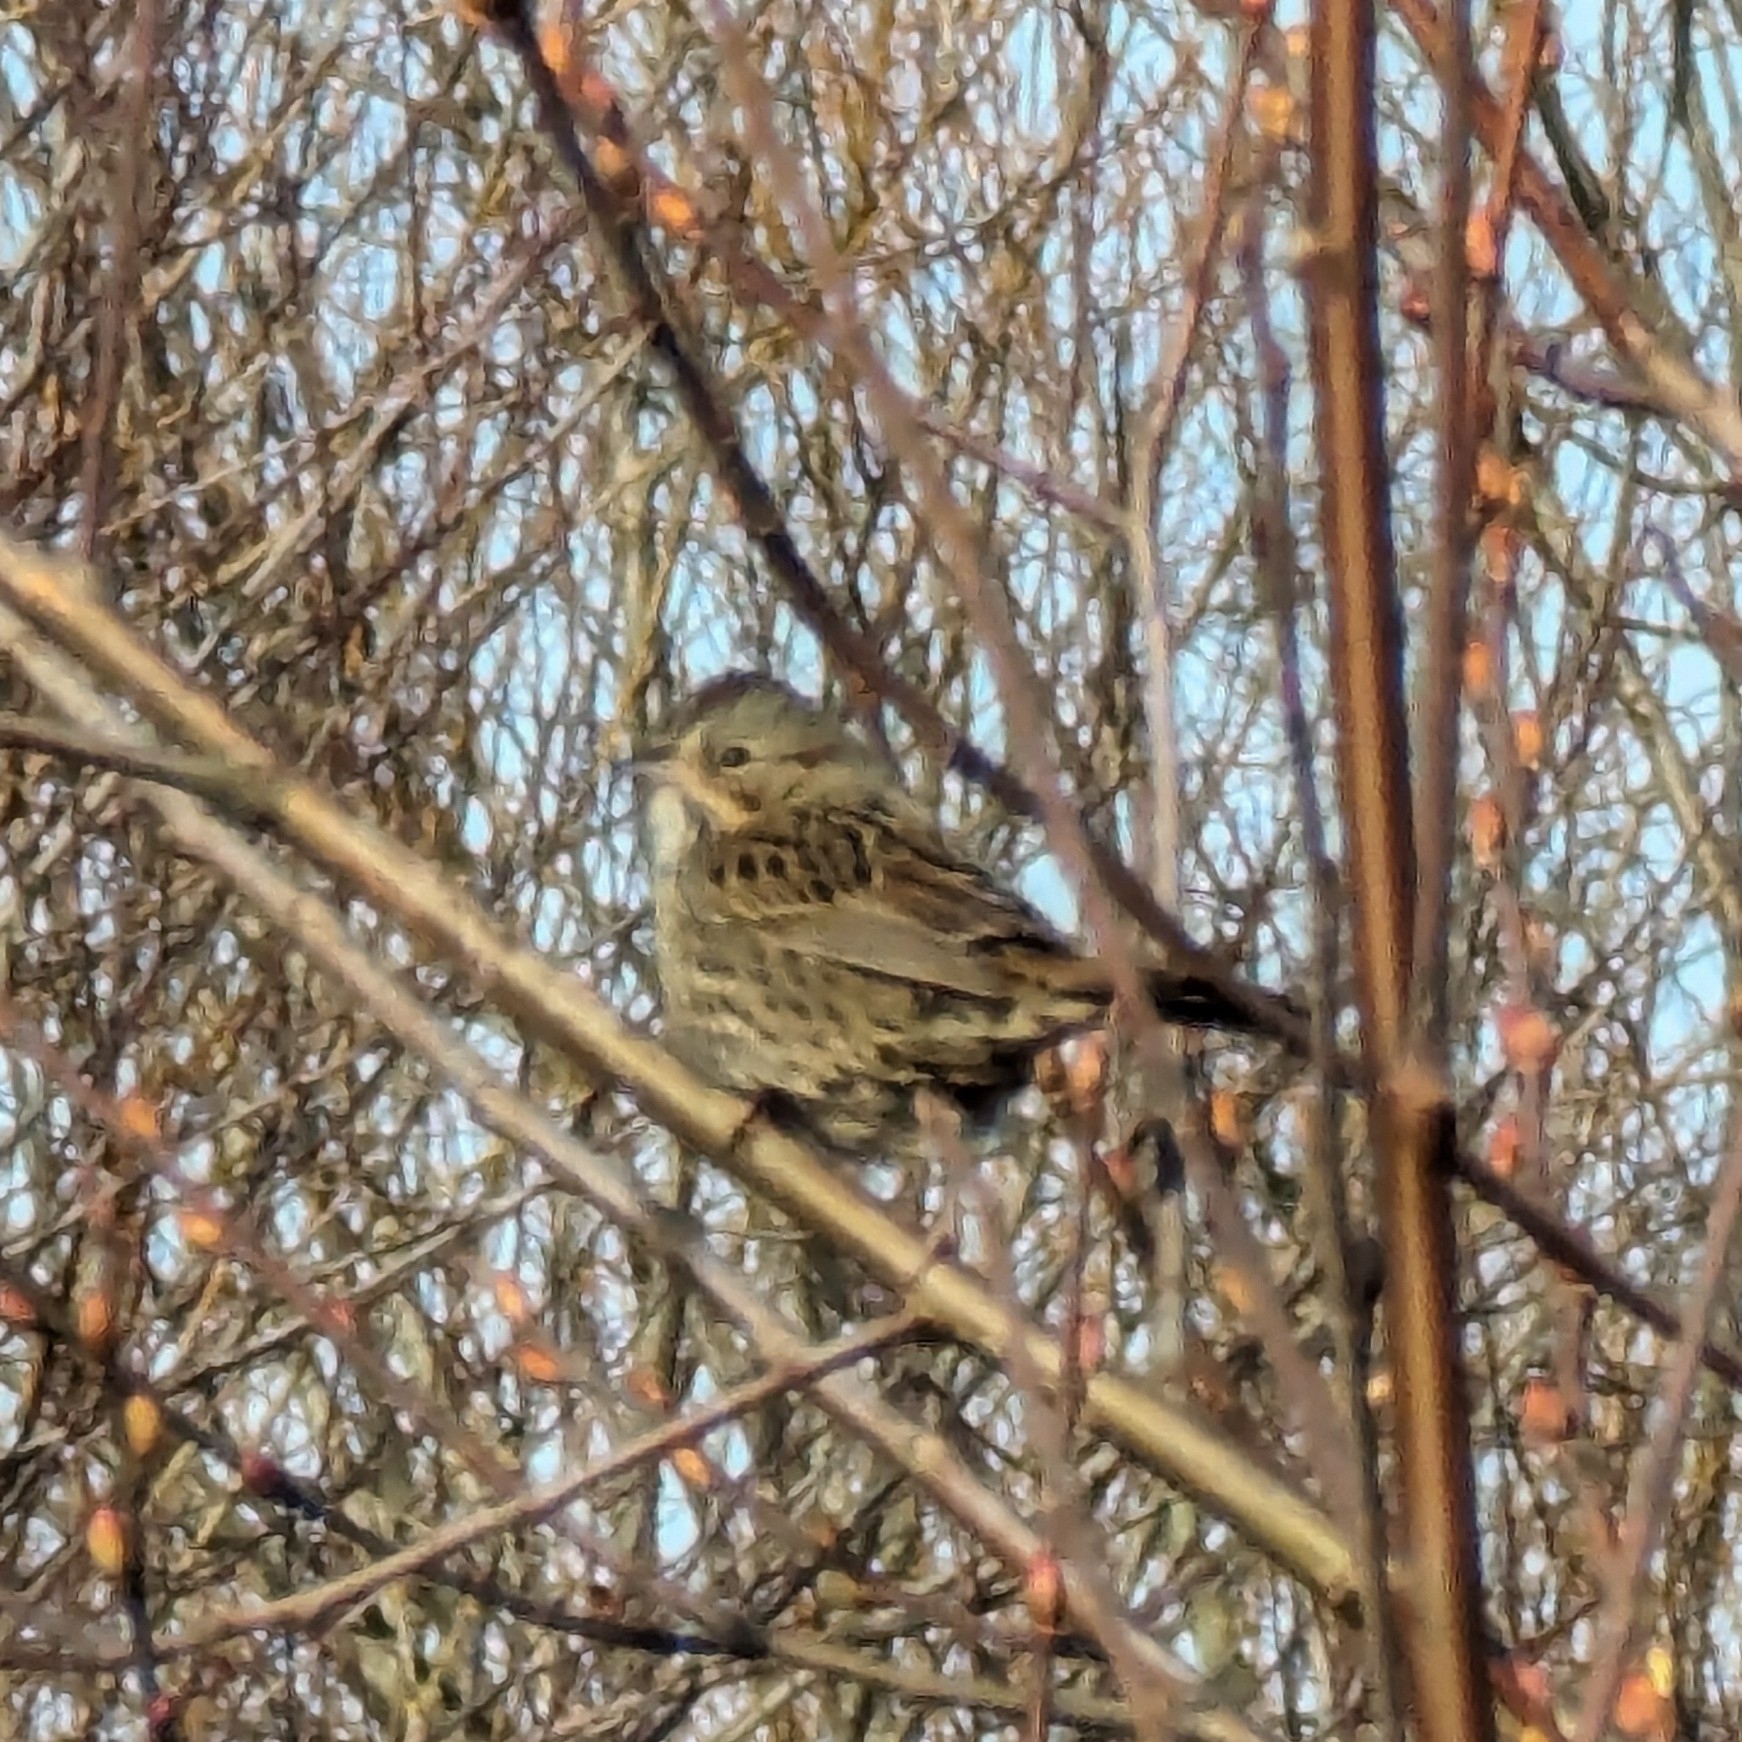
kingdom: Animalia
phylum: Chordata
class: Aves
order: Passeriformes
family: Passerellidae
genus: Melospiza
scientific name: Melospiza lincolnii
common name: Lincoln's sparrow
